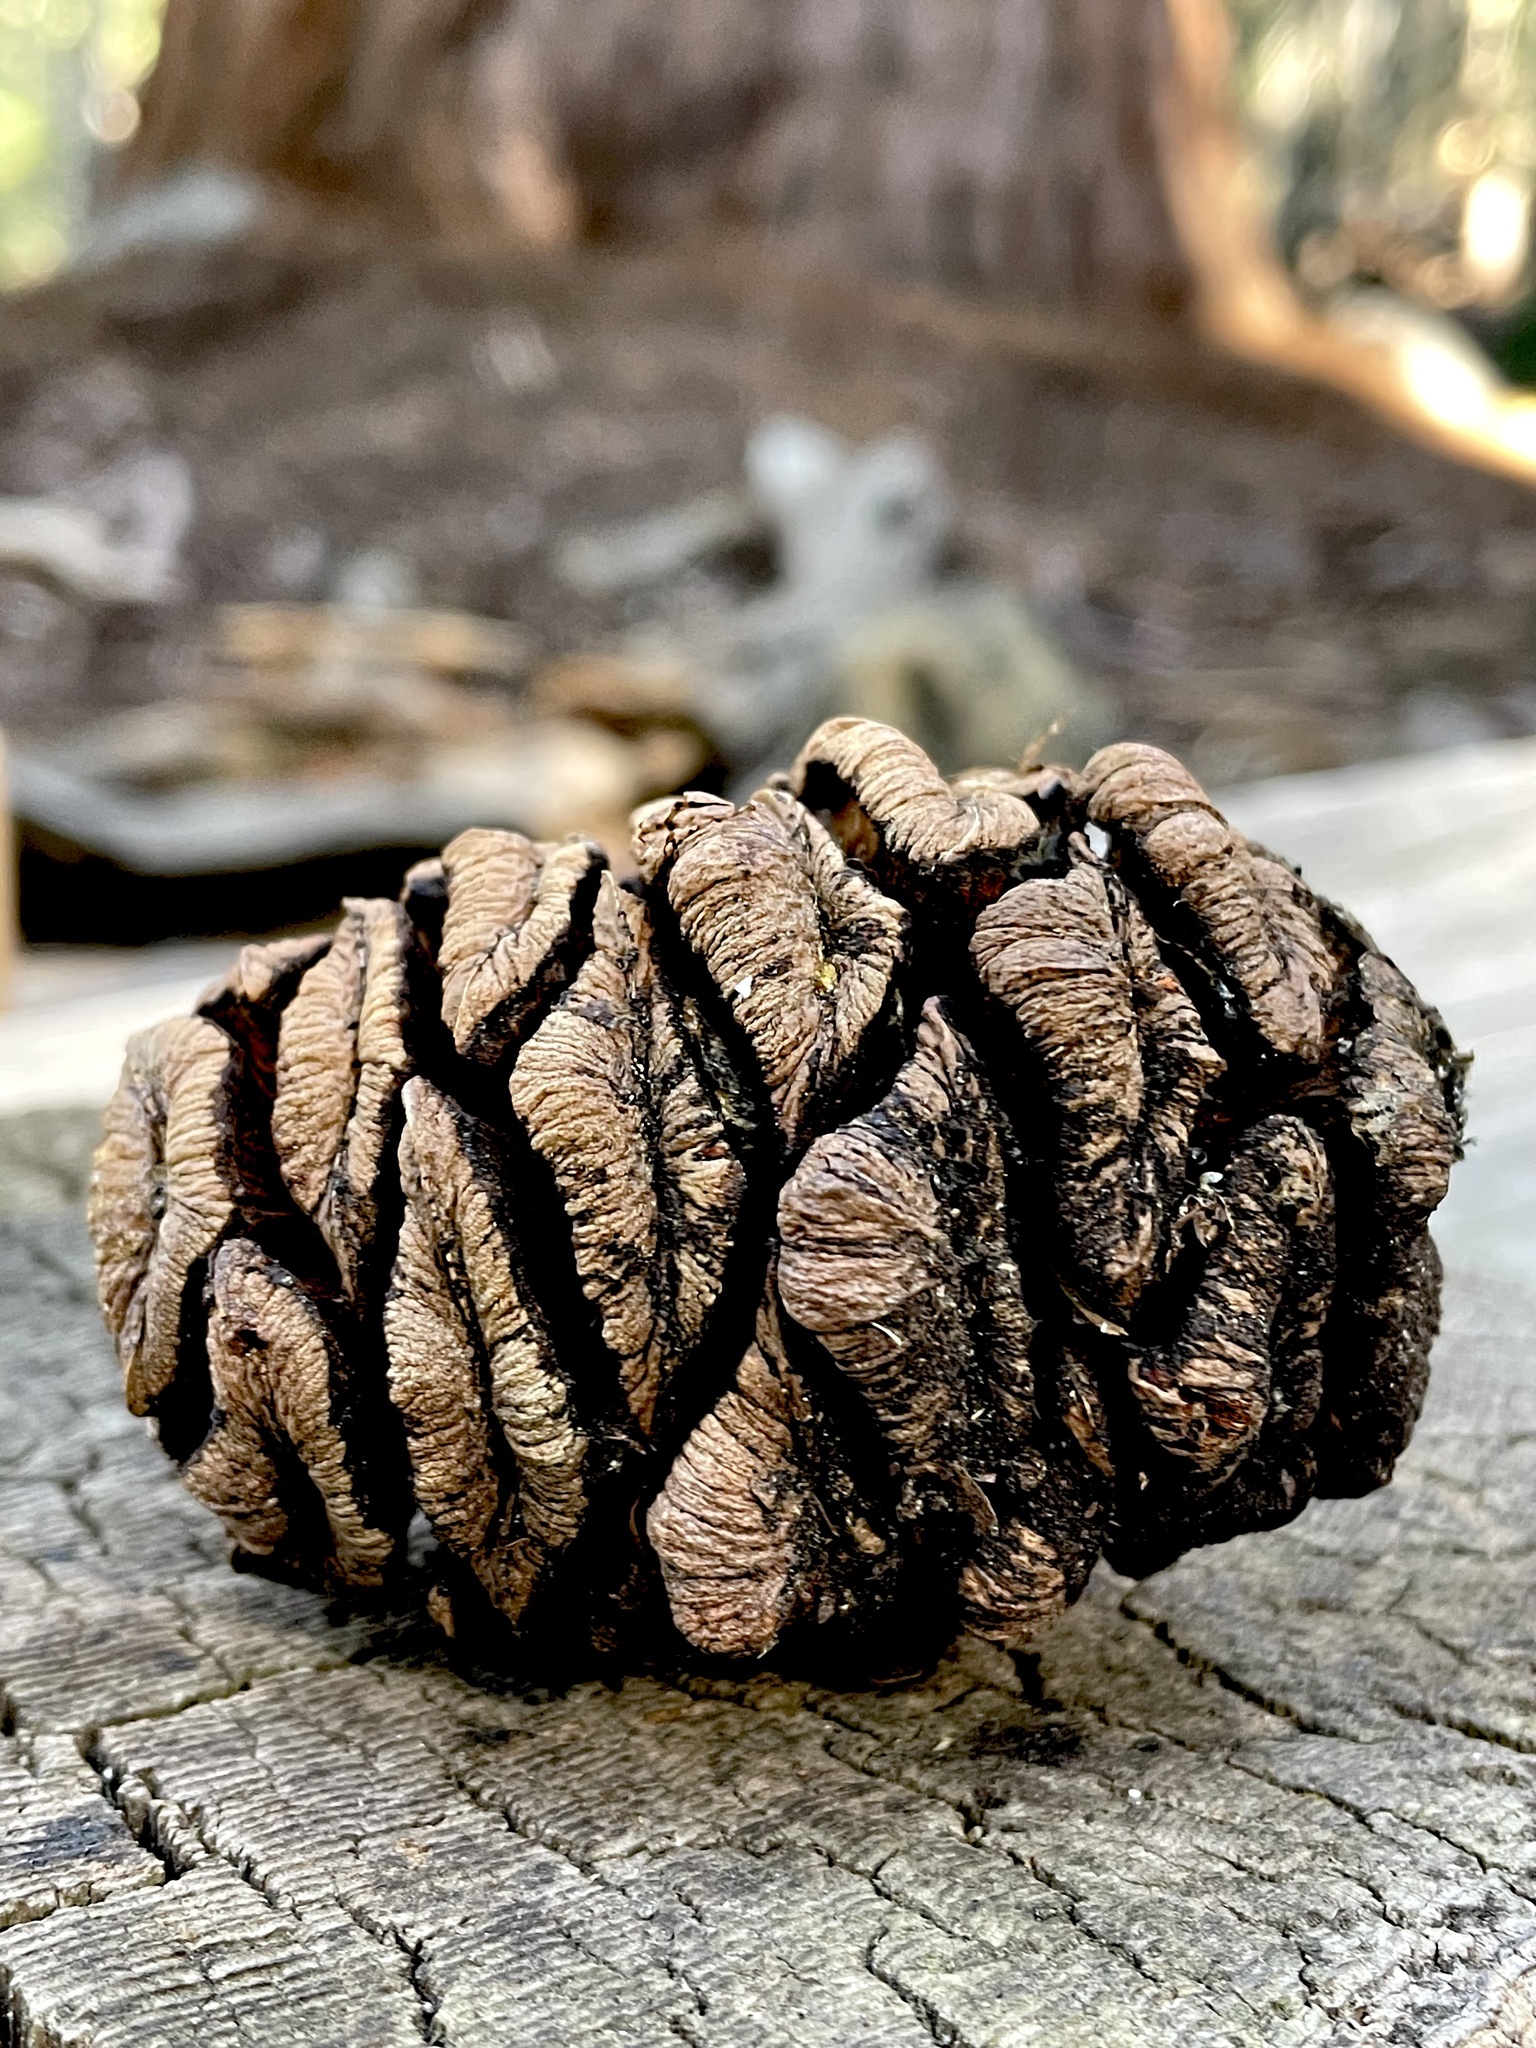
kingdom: Plantae
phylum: Tracheophyta
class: Pinopsida
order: Pinales
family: Cupressaceae
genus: Sequoiadendron
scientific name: Sequoiadendron giganteum
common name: Wellingtonia
